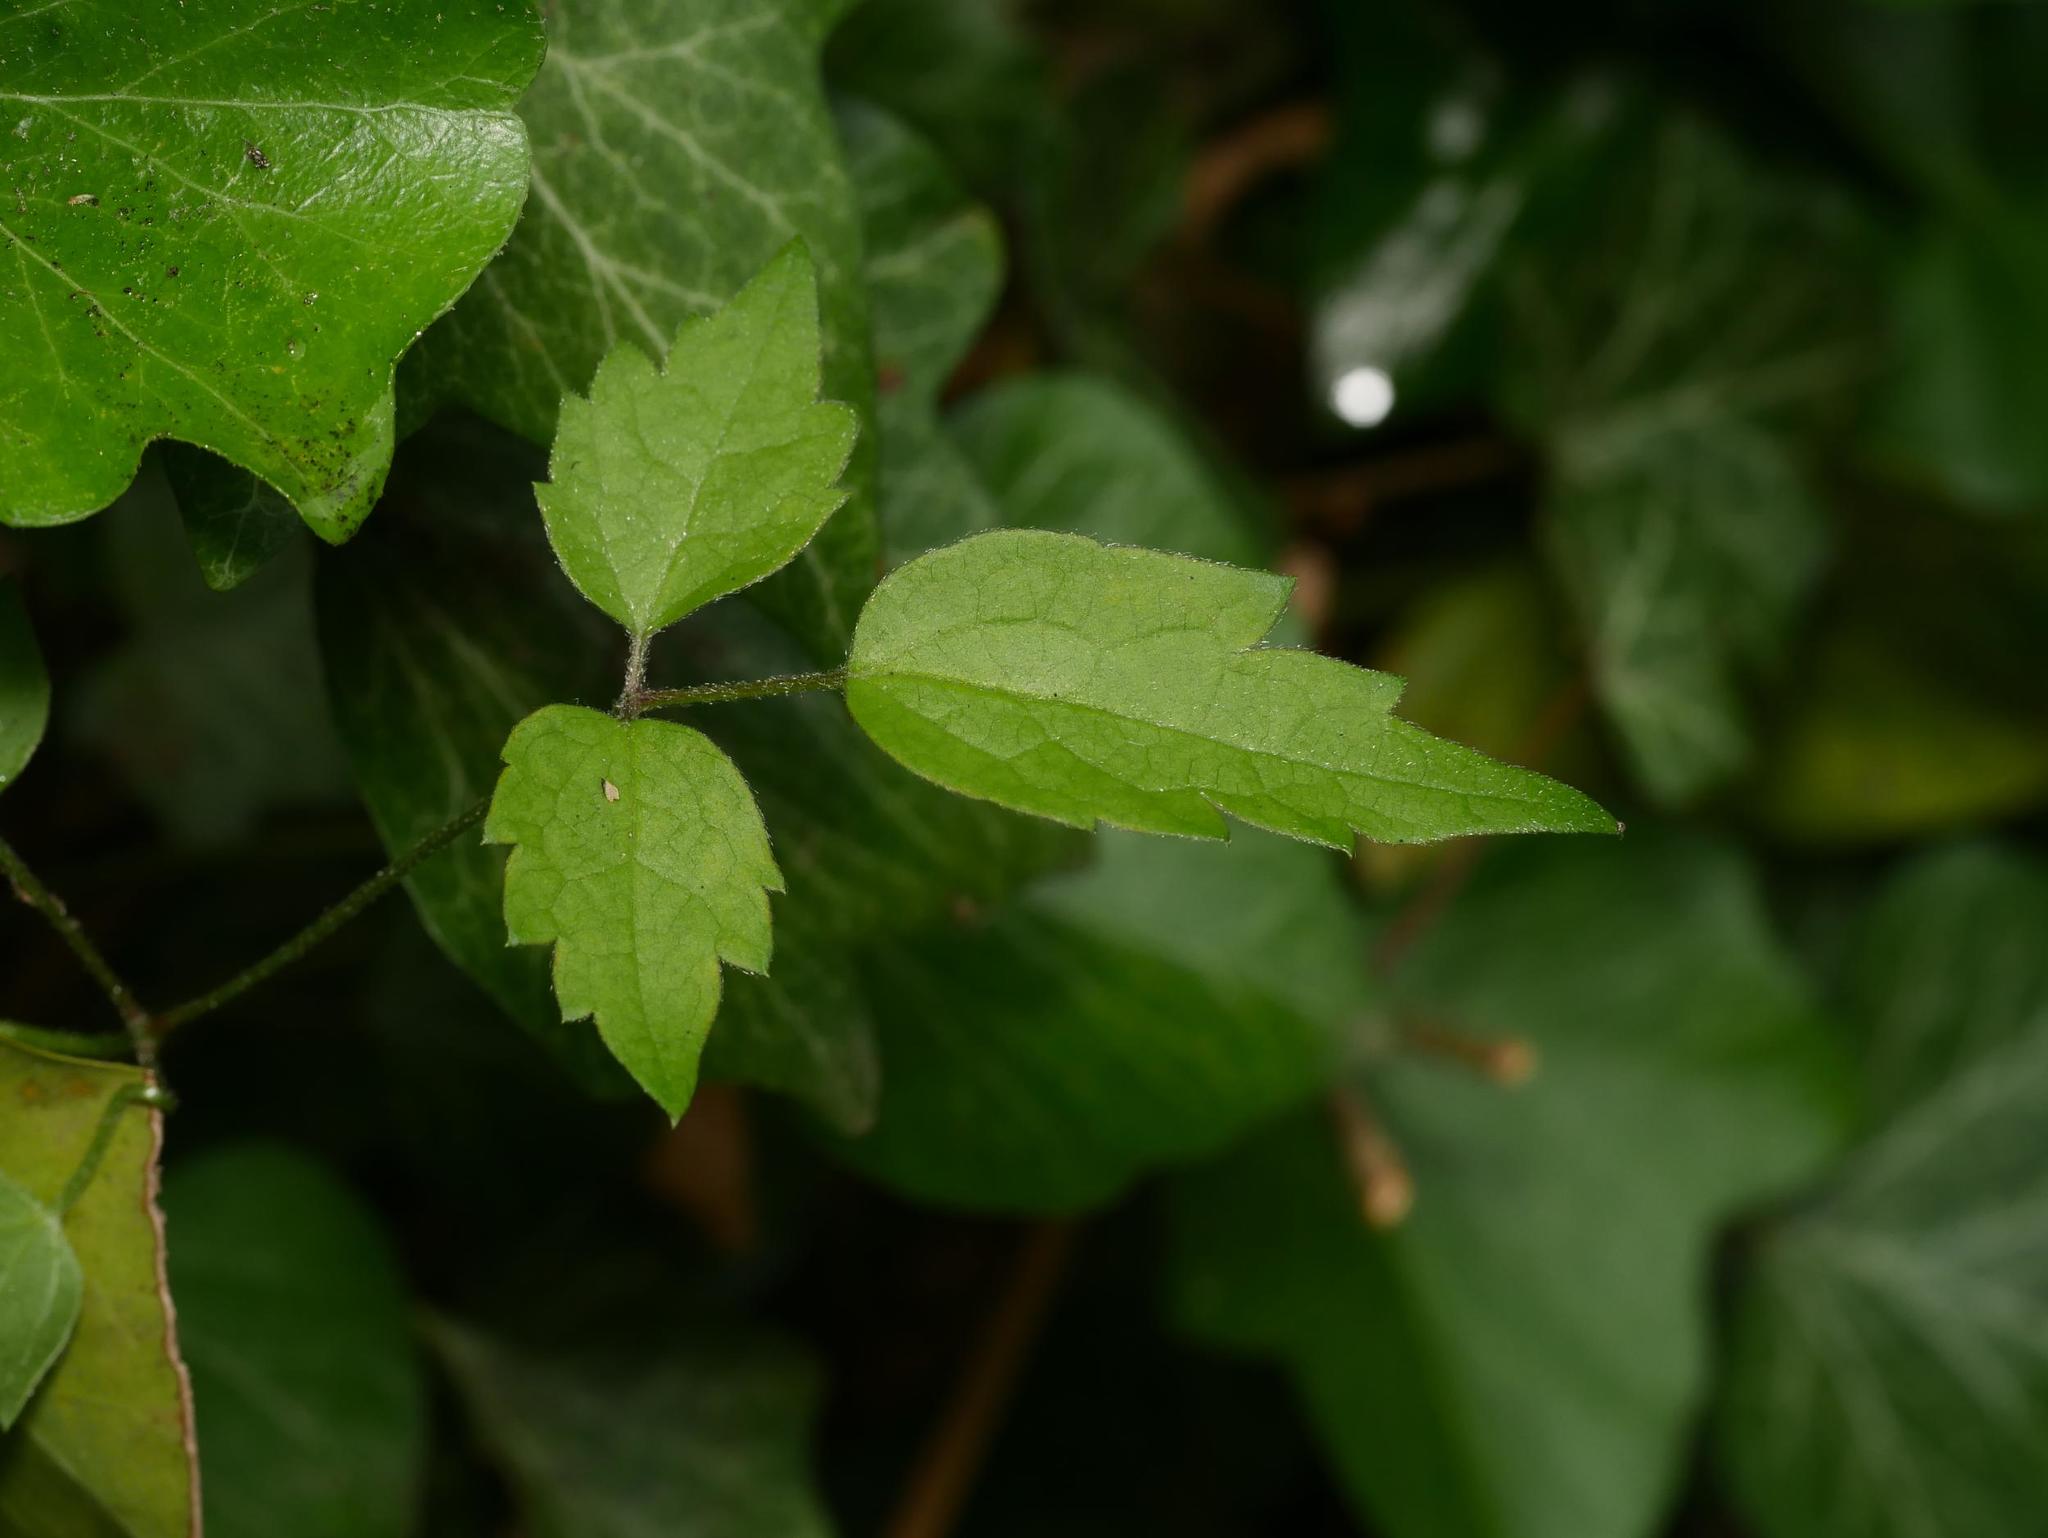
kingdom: Plantae
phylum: Tracheophyta
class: Magnoliopsida
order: Ranunculales
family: Ranunculaceae
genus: Clematis
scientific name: Clematis vitalba
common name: Evergreen clematis
